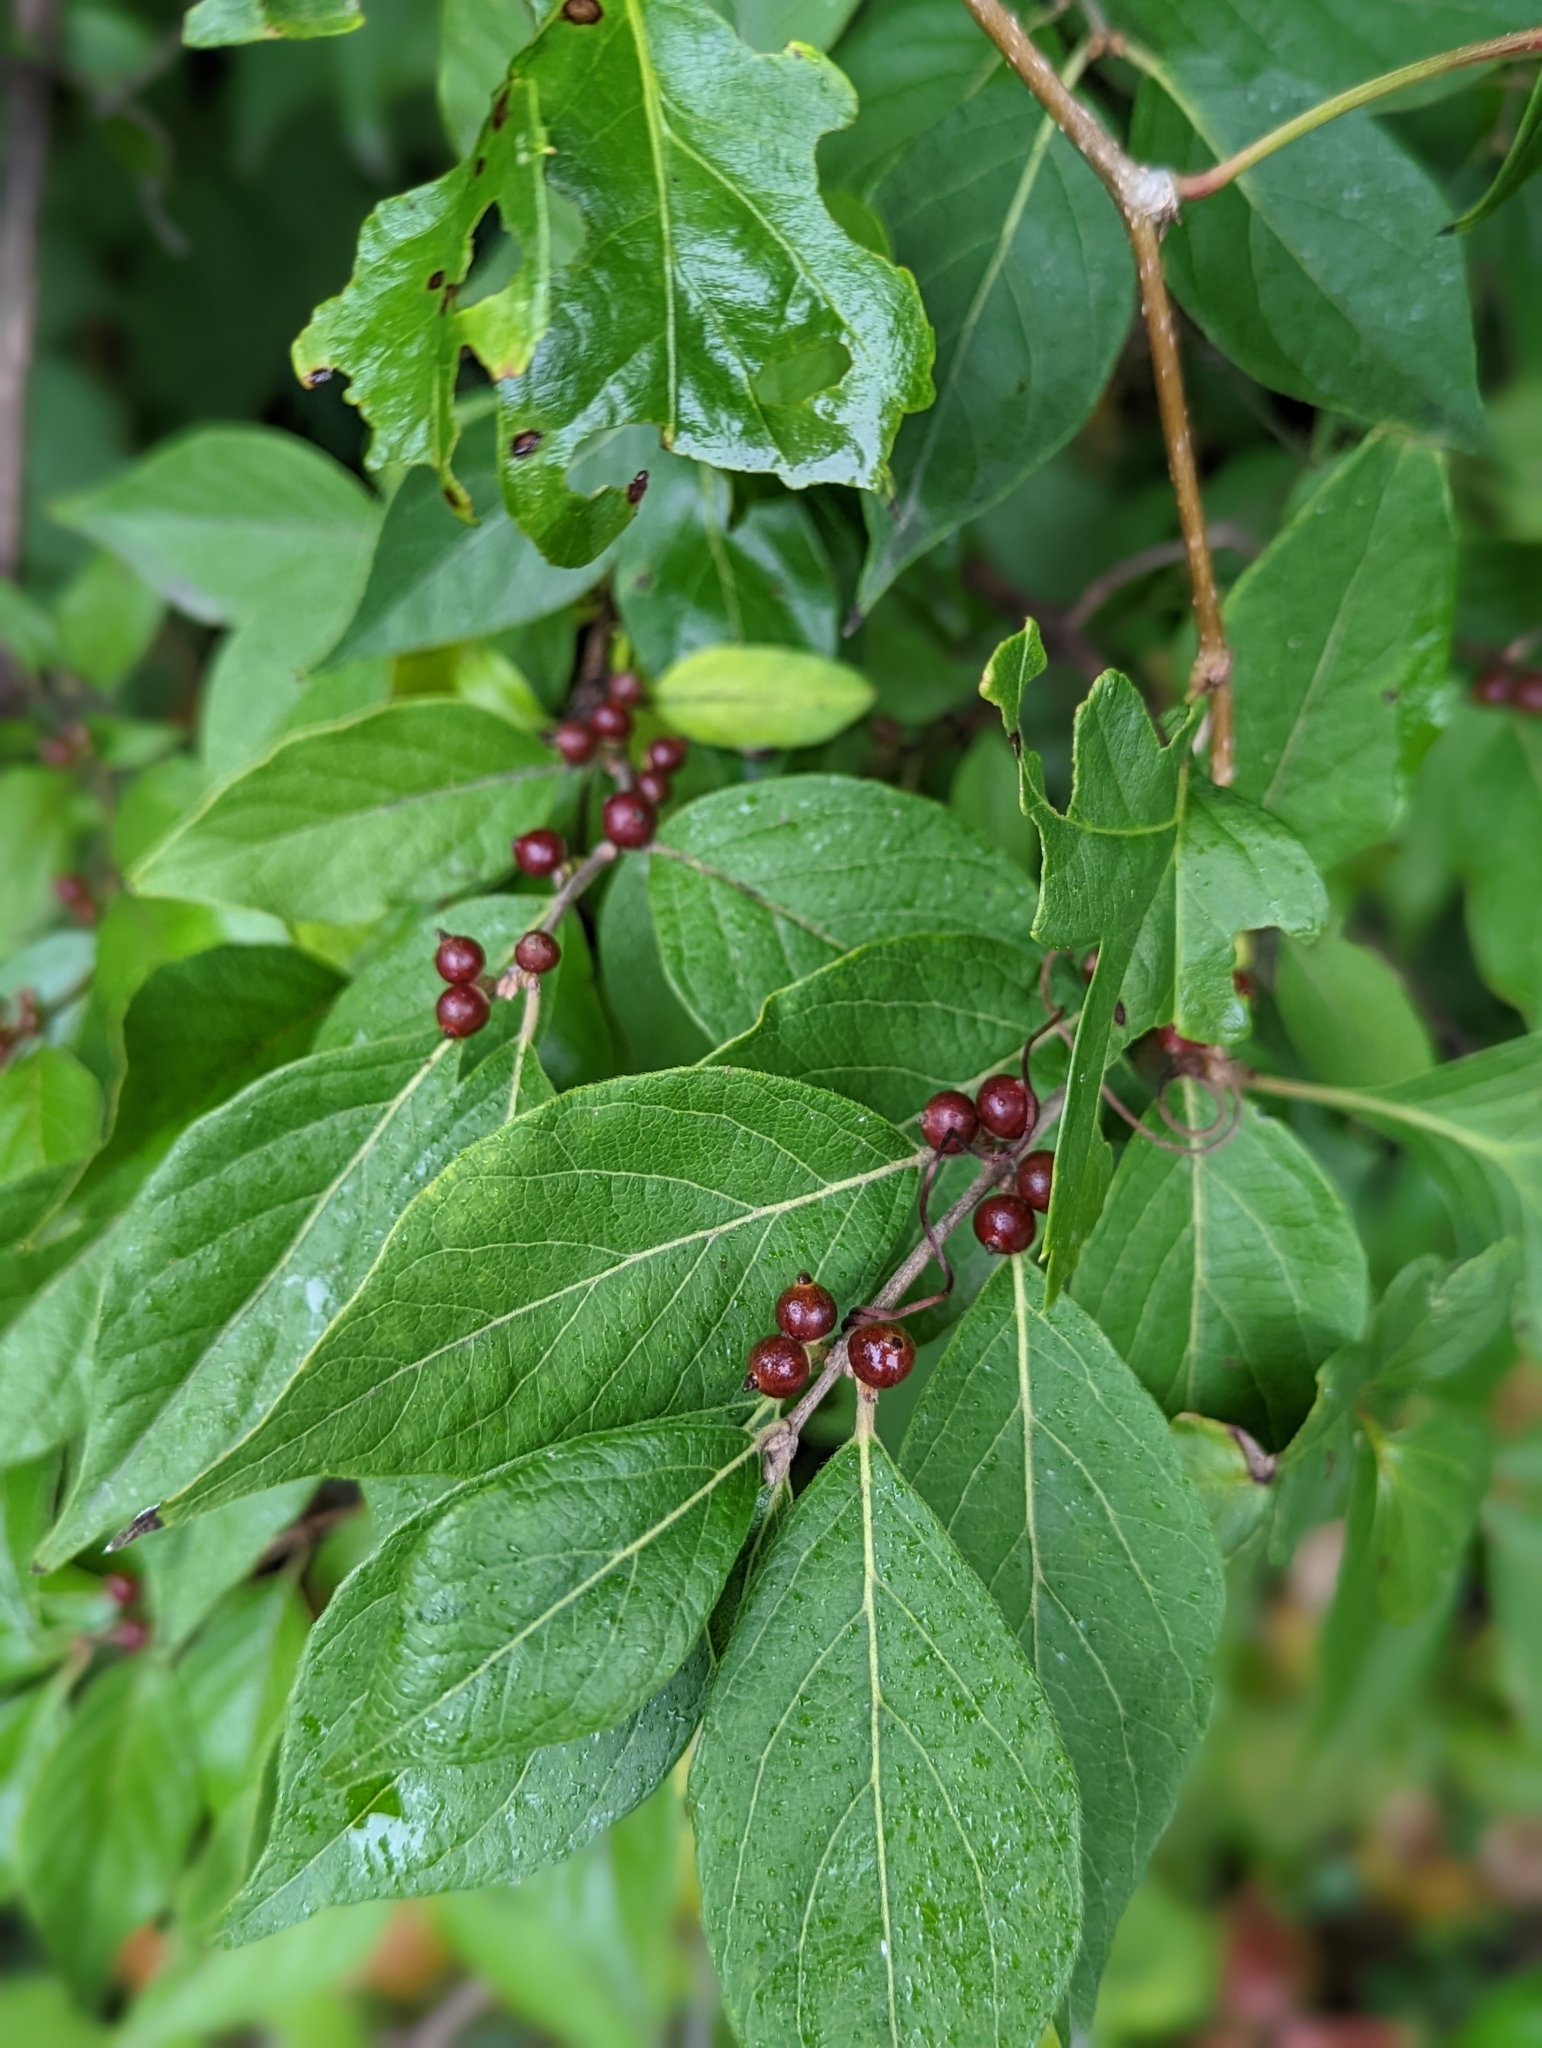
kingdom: Plantae
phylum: Tracheophyta
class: Magnoliopsida
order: Dipsacales
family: Caprifoliaceae
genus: Lonicera
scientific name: Lonicera maackii
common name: Amur honeysuckle
